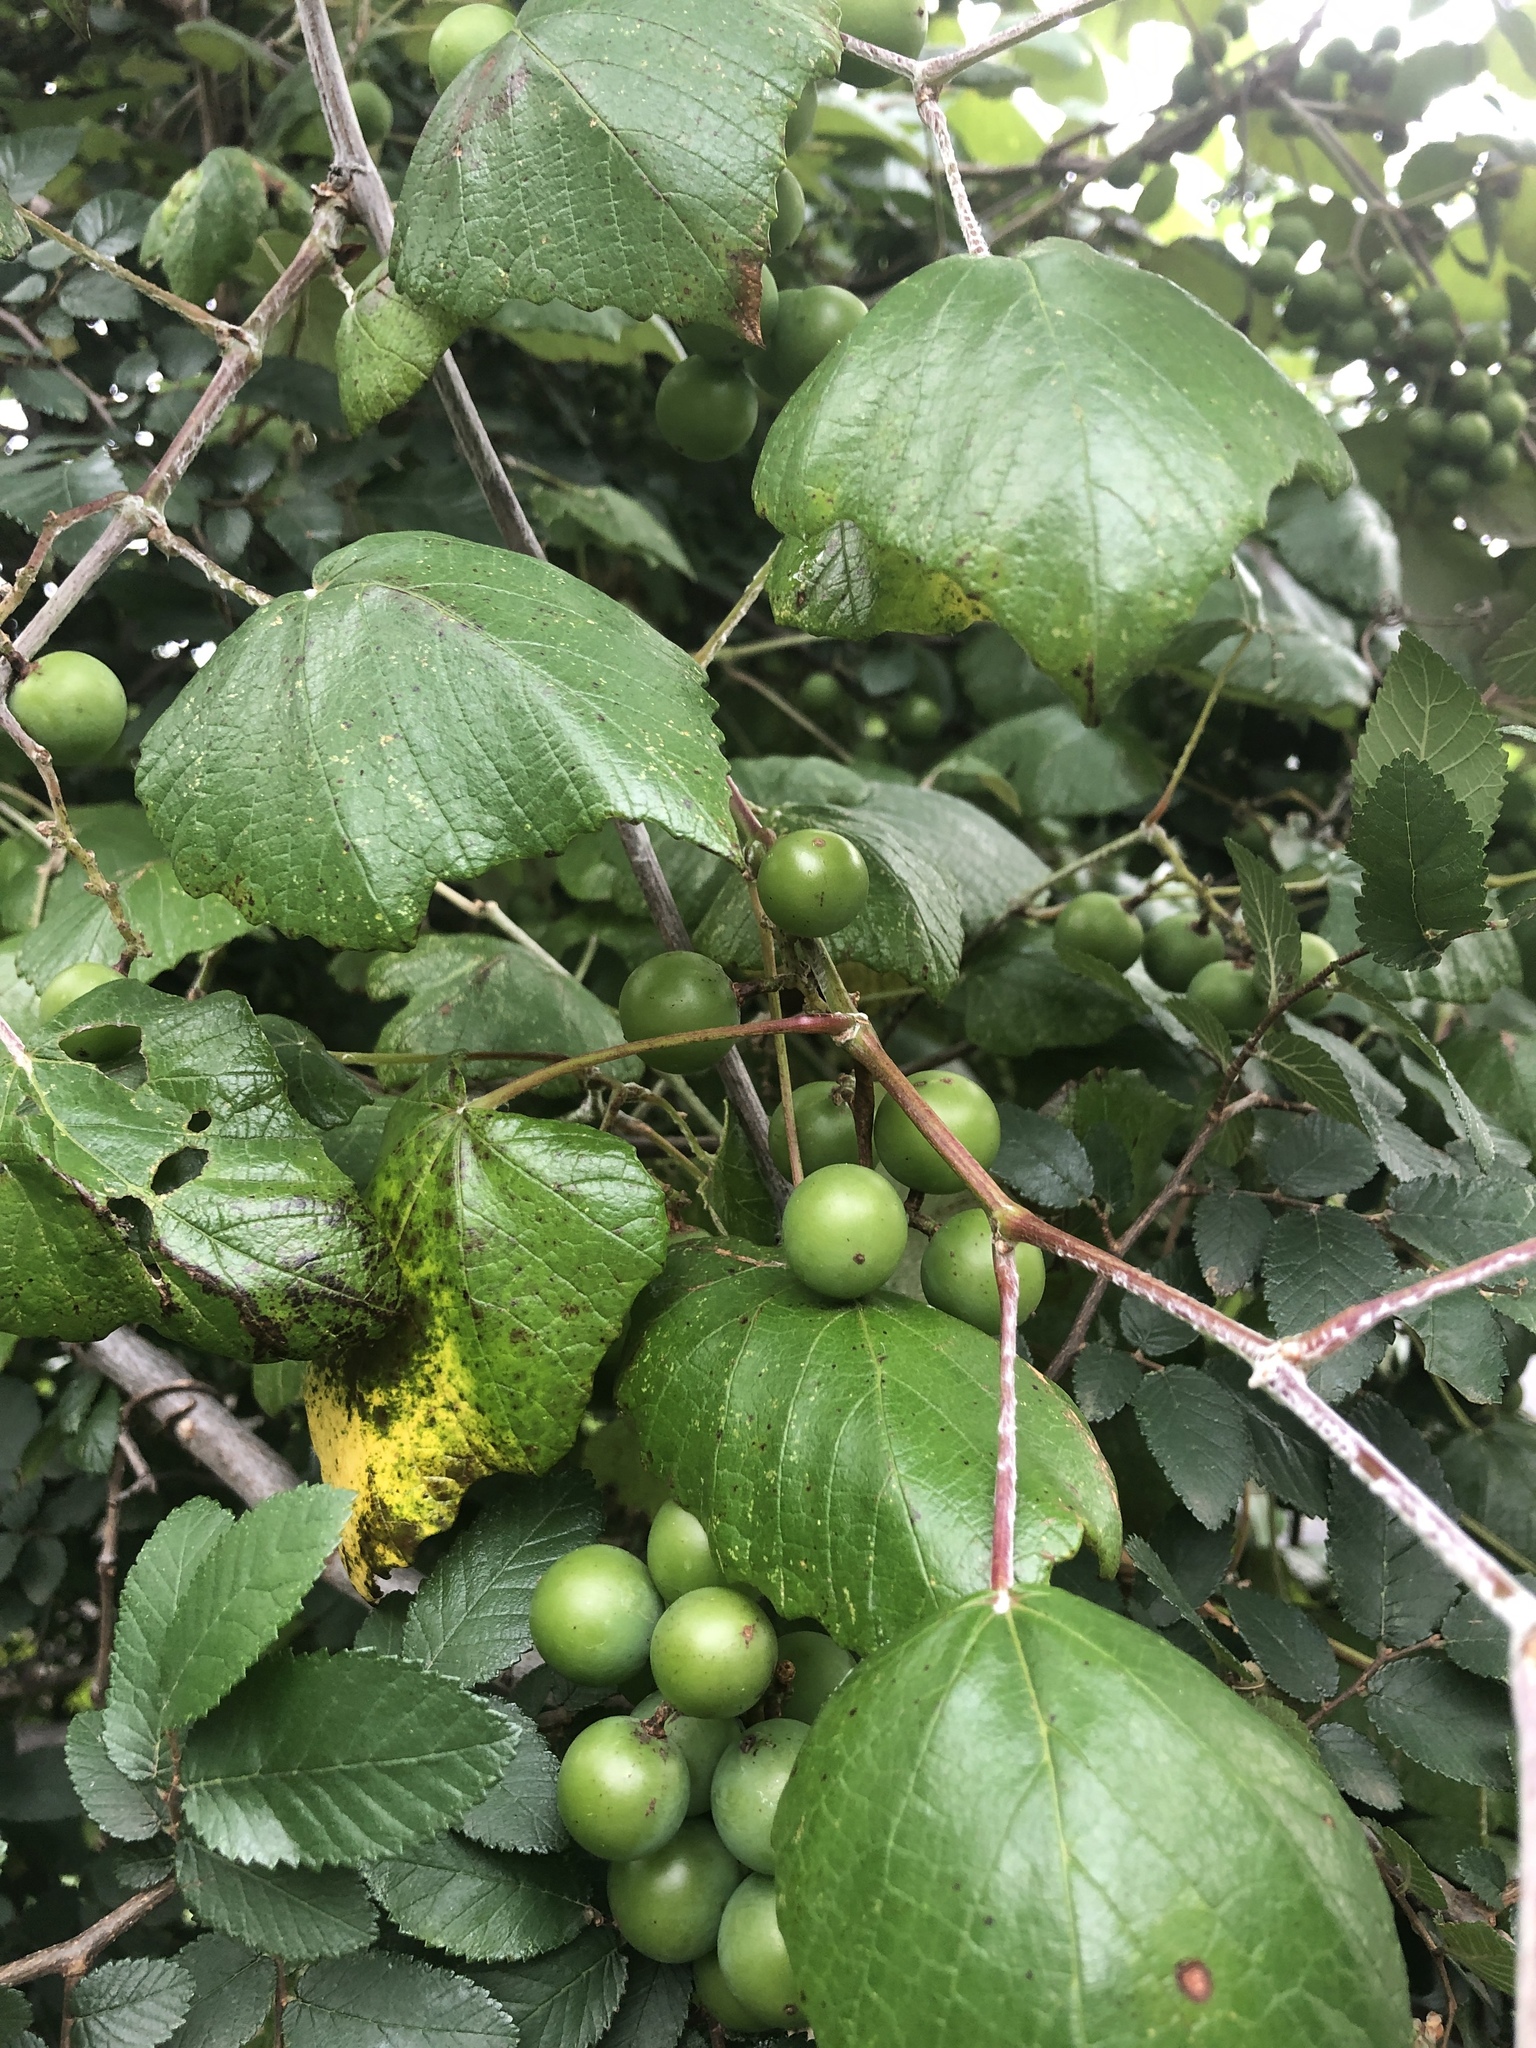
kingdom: Plantae
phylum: Tracheophyta
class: Magnoliopsida
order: Vitales
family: Vitaceae
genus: Vitis
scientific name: Vitis mustangensis
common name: Mustang grape
